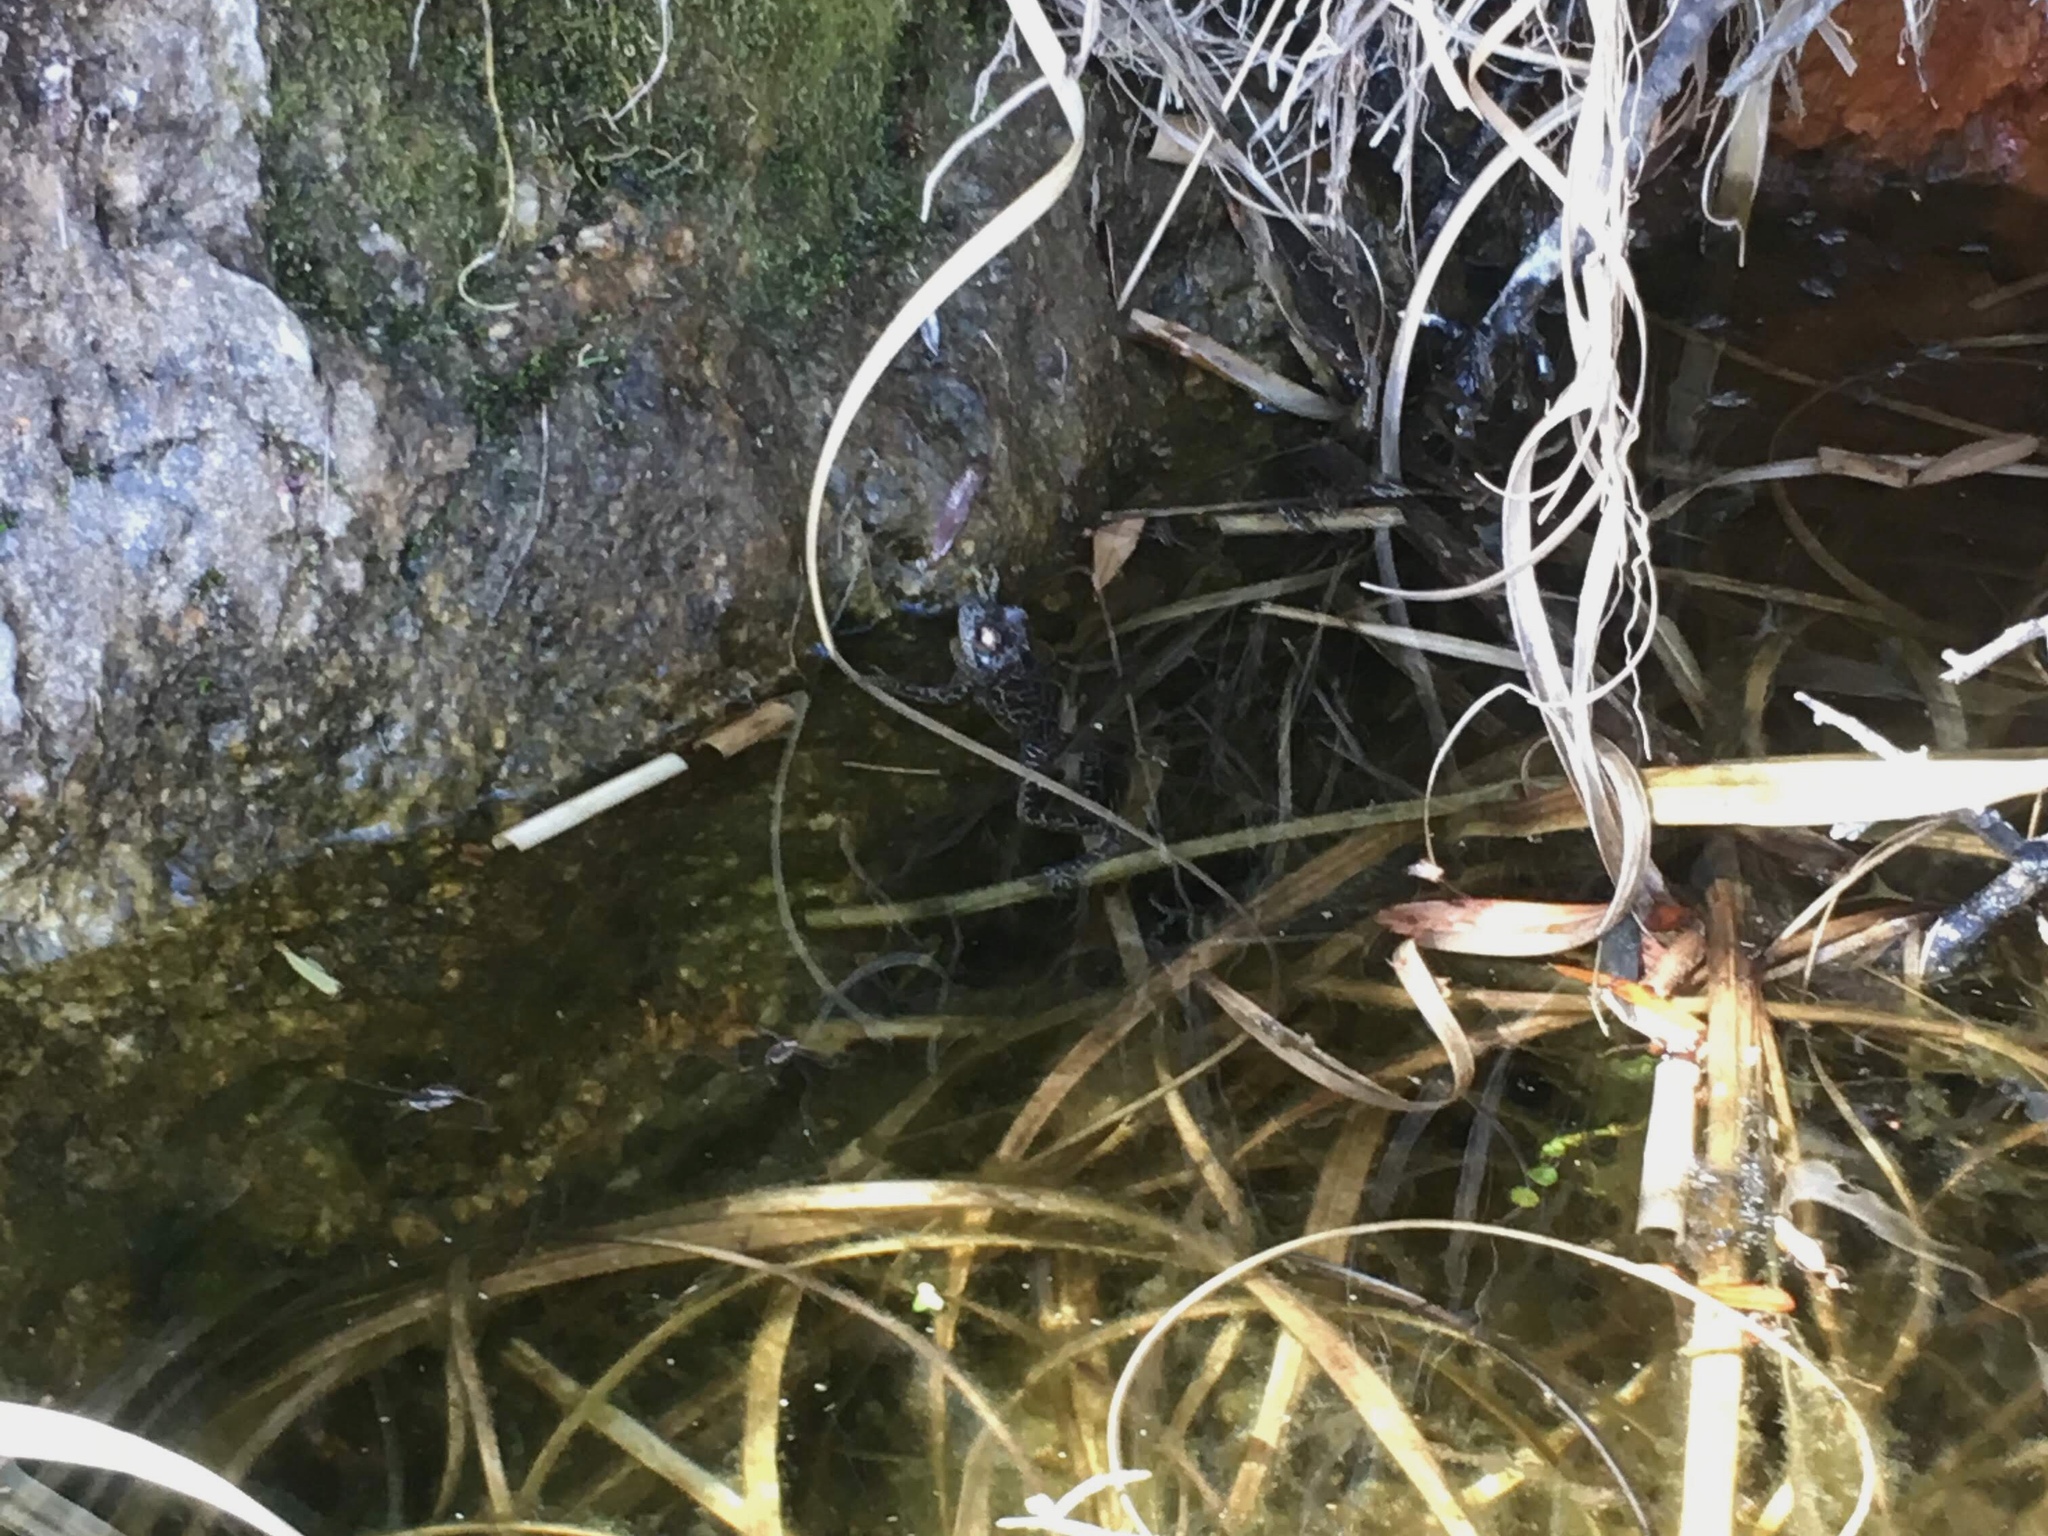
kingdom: Animalia
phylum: Chordata
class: Amphibia
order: Anura
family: Hylidae
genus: Boana
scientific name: Boana cordobae
